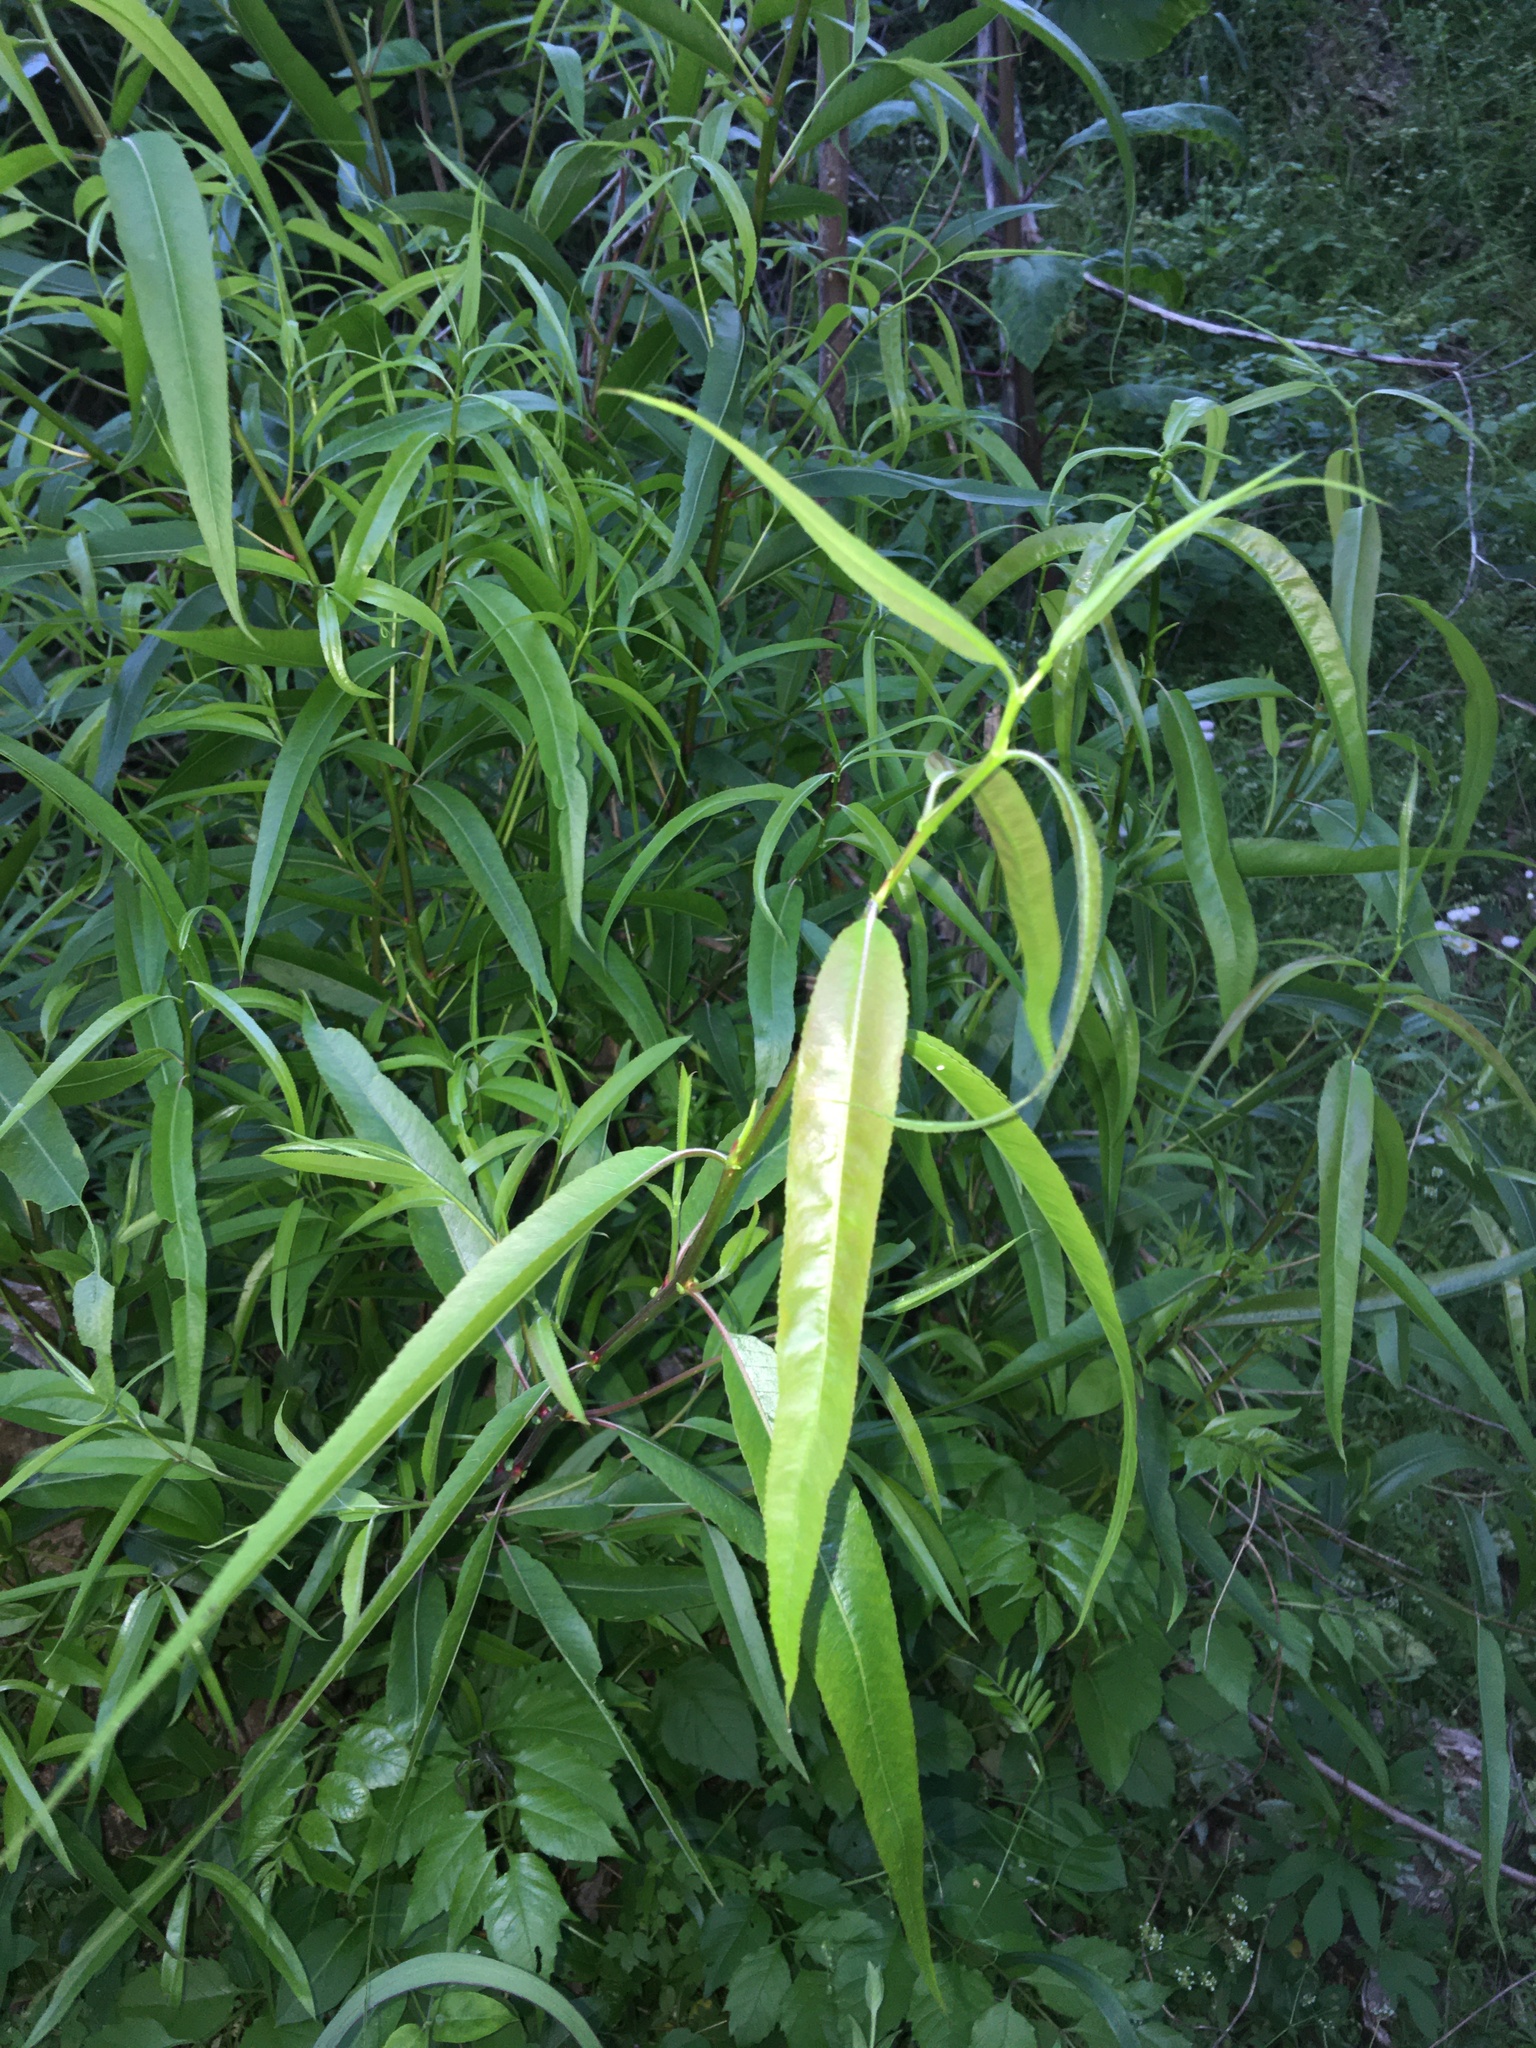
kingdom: Plantae
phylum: Tracheophyta
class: Magnoliopsida
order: Malpighiales
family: Salicaceae
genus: Salix
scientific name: Salix nigra
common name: Black willow
